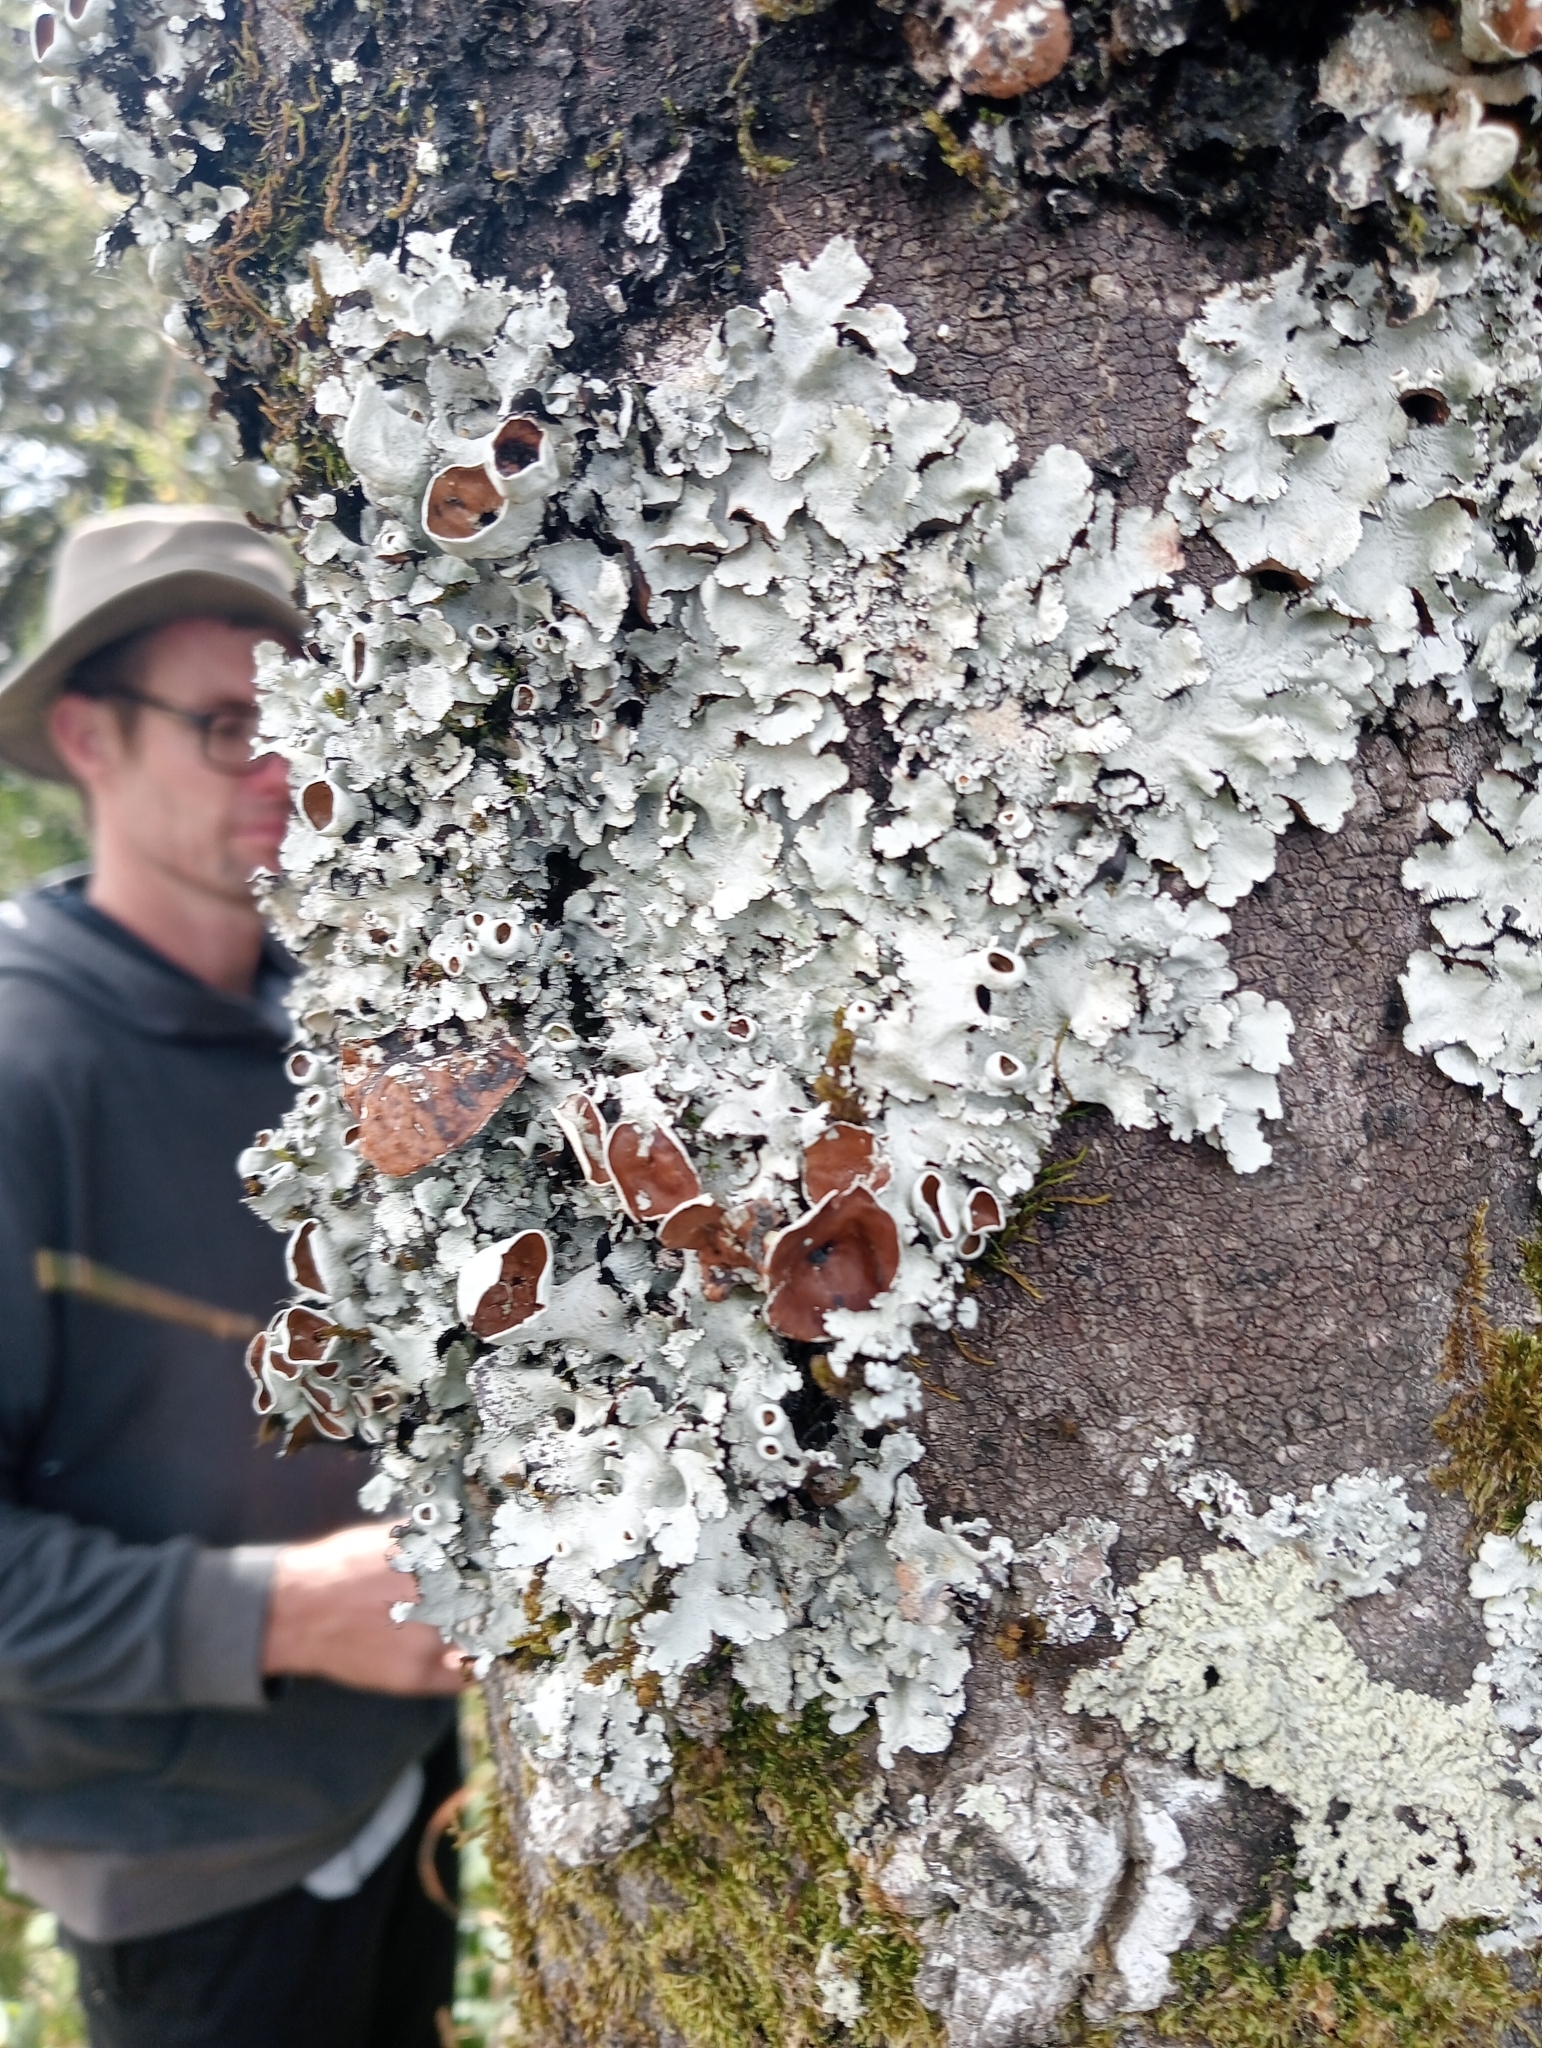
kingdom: Fungi
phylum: Ascomycota
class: Lecanoromycetes
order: Lecanorales
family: Parmeliaceae
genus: Parmotrema
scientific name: Parmotrema reparatum
